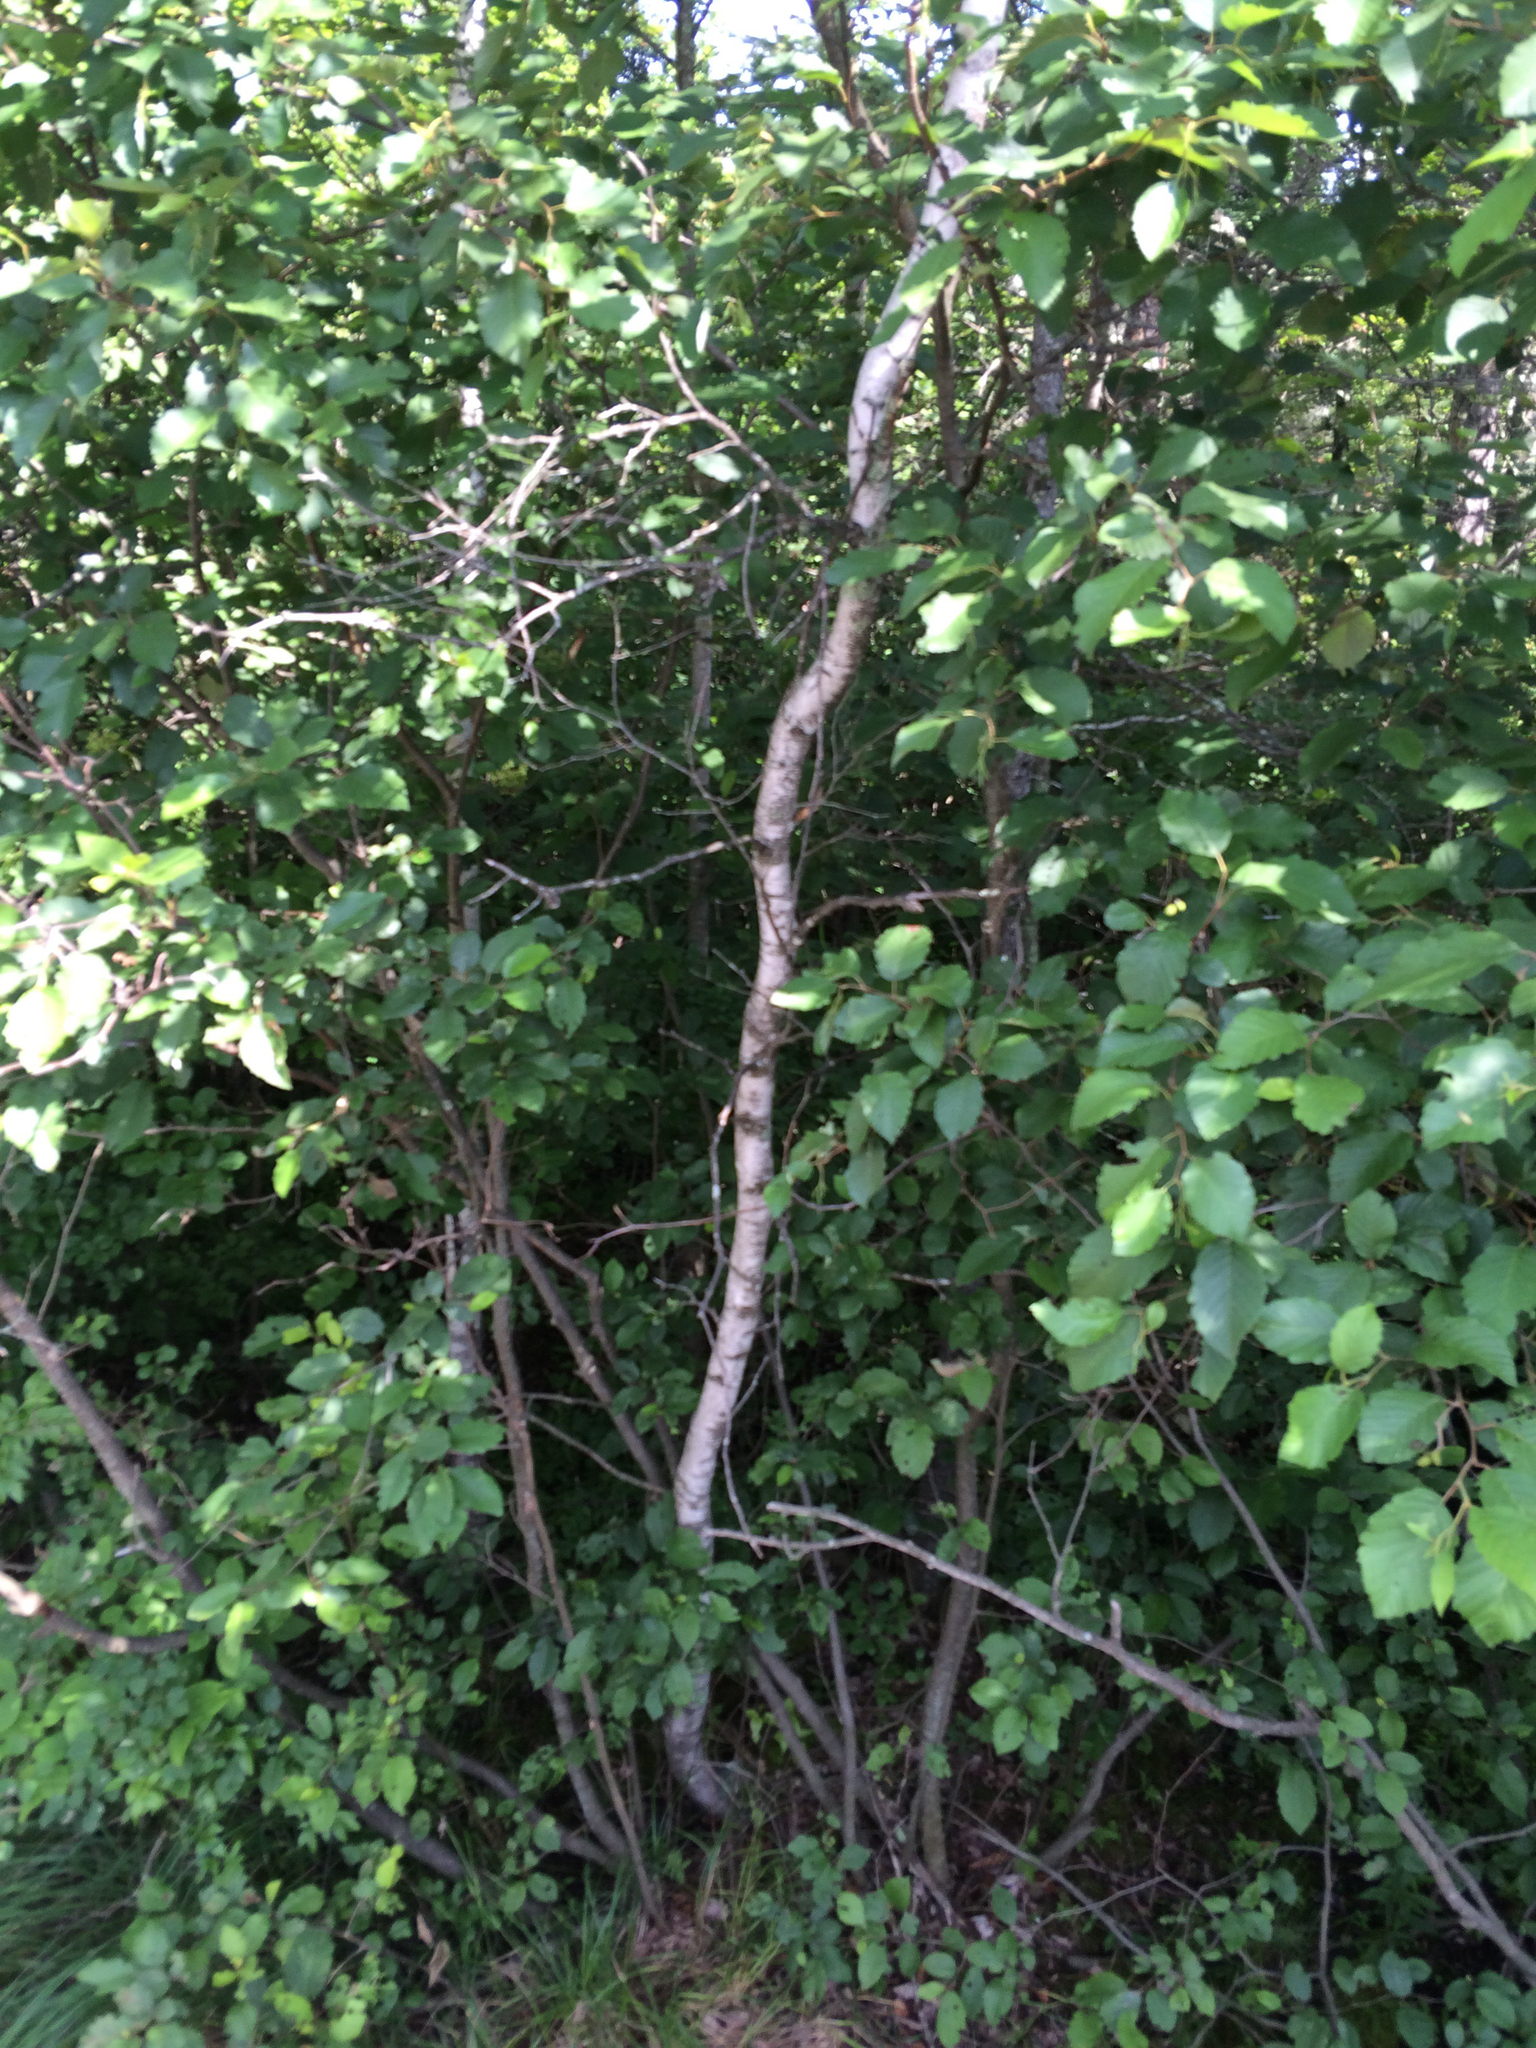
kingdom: Plantae
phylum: Tracheophyta
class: Magnoliopsida
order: Fagales
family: Betulaceae
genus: Betula
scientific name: Betula populifolia
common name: Fire birch
